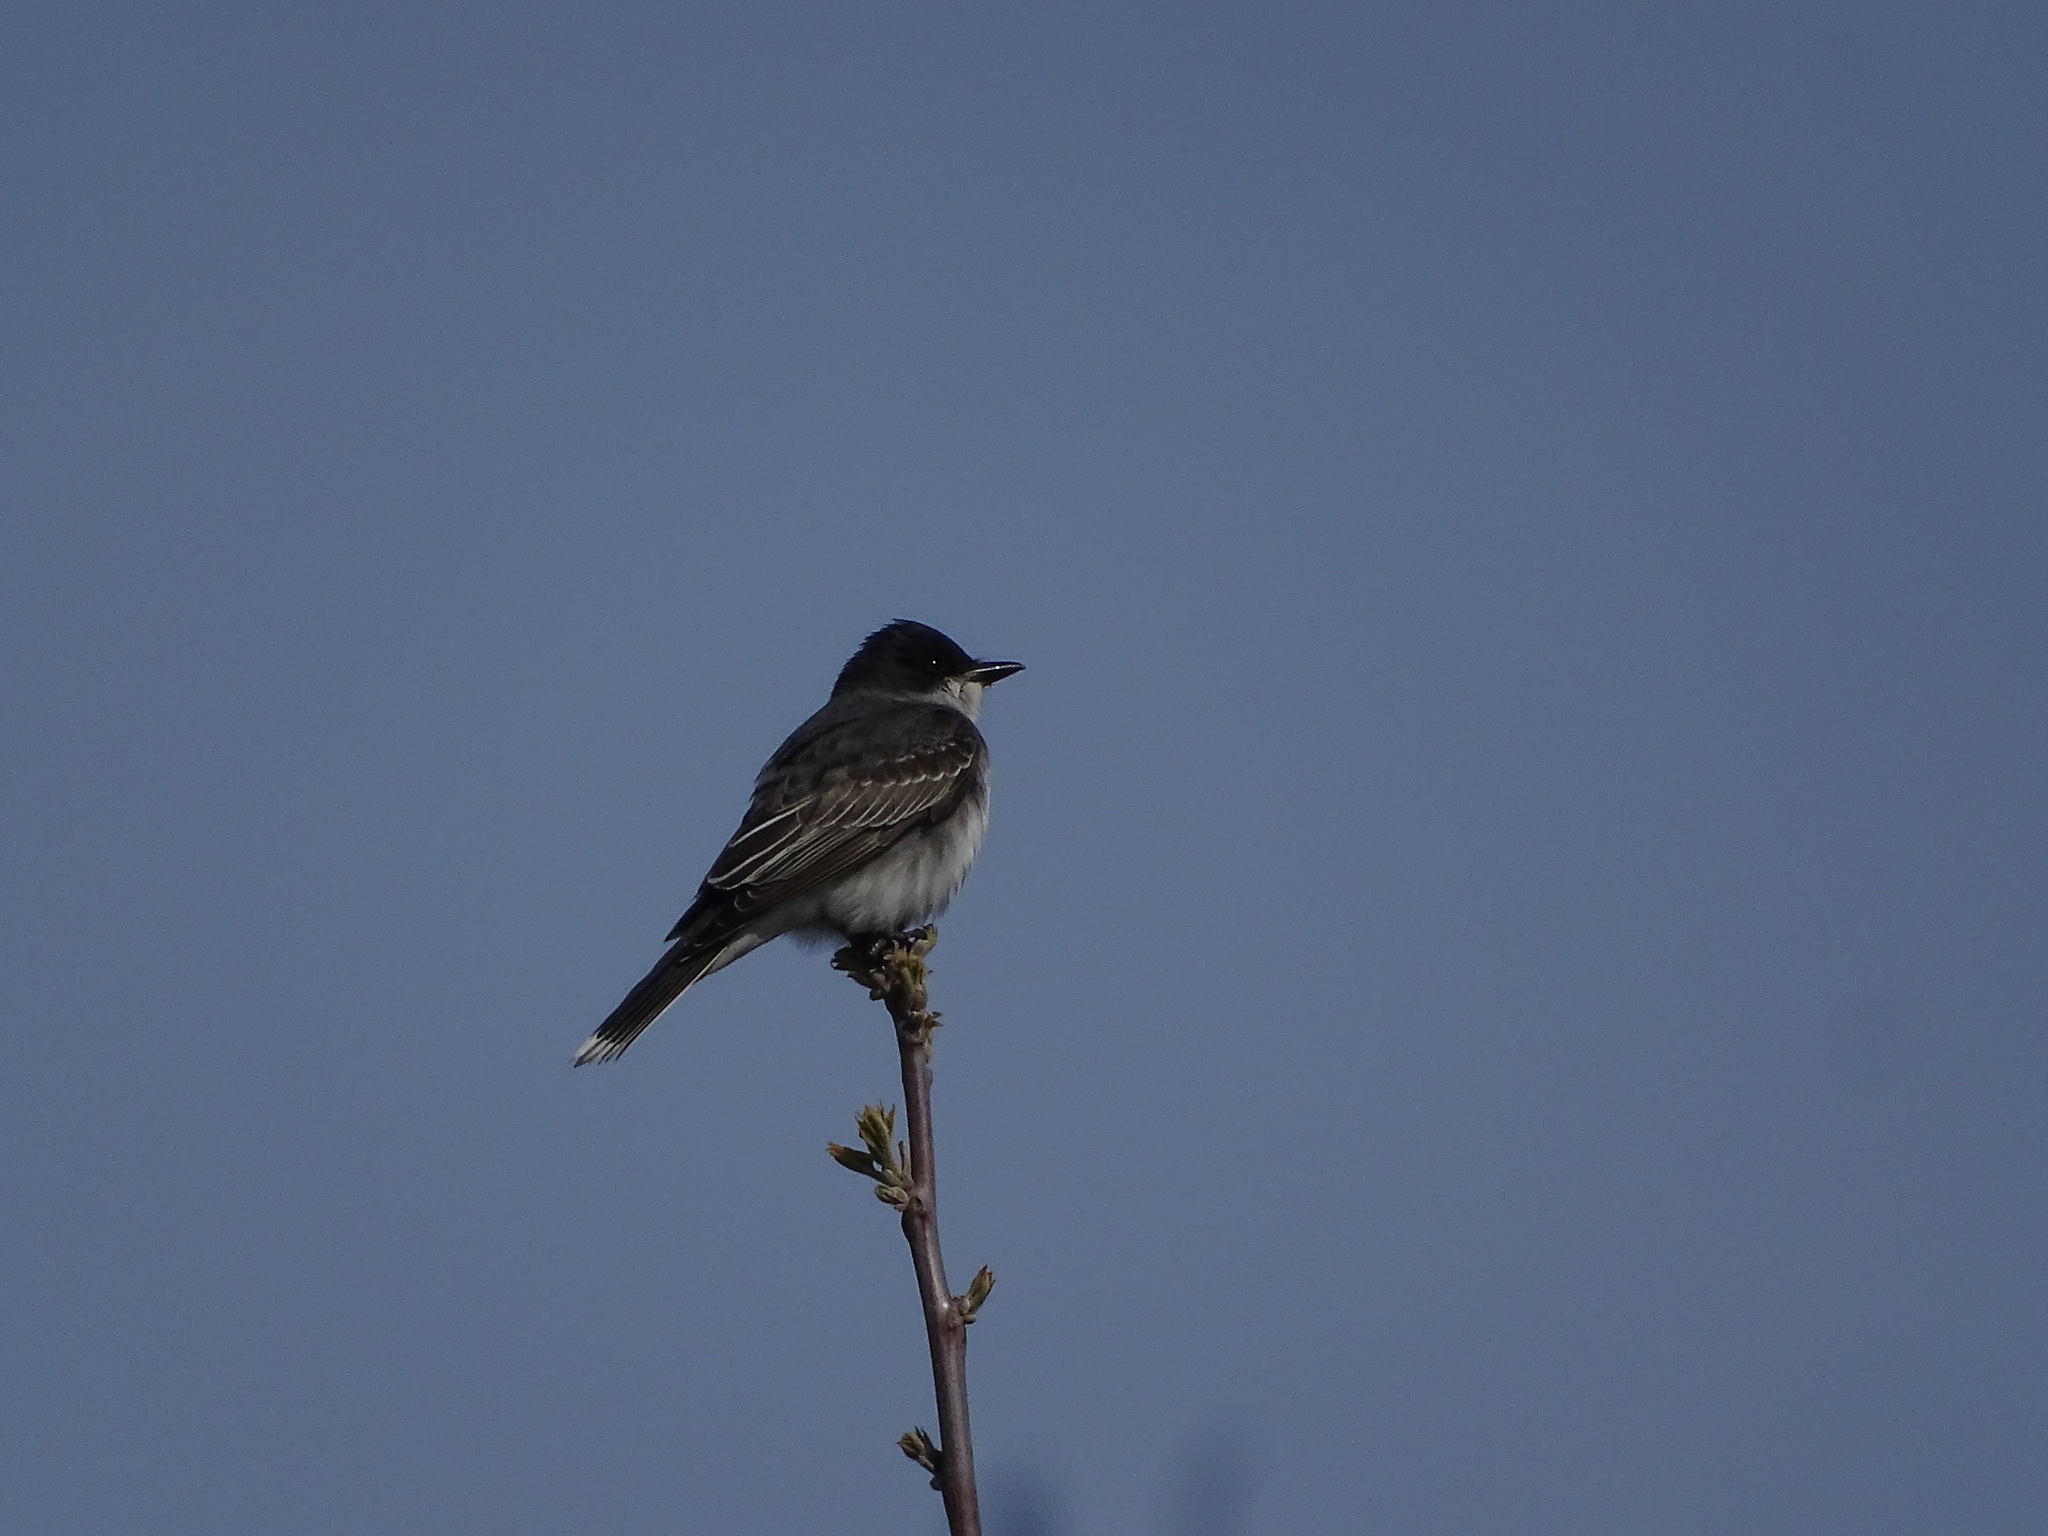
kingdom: Animalia
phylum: Chordata
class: Aves
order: Passeriformes
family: Tyrannidae
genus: Tyrannus
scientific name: Tyrannus tyrannus
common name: Eastern kingbird
